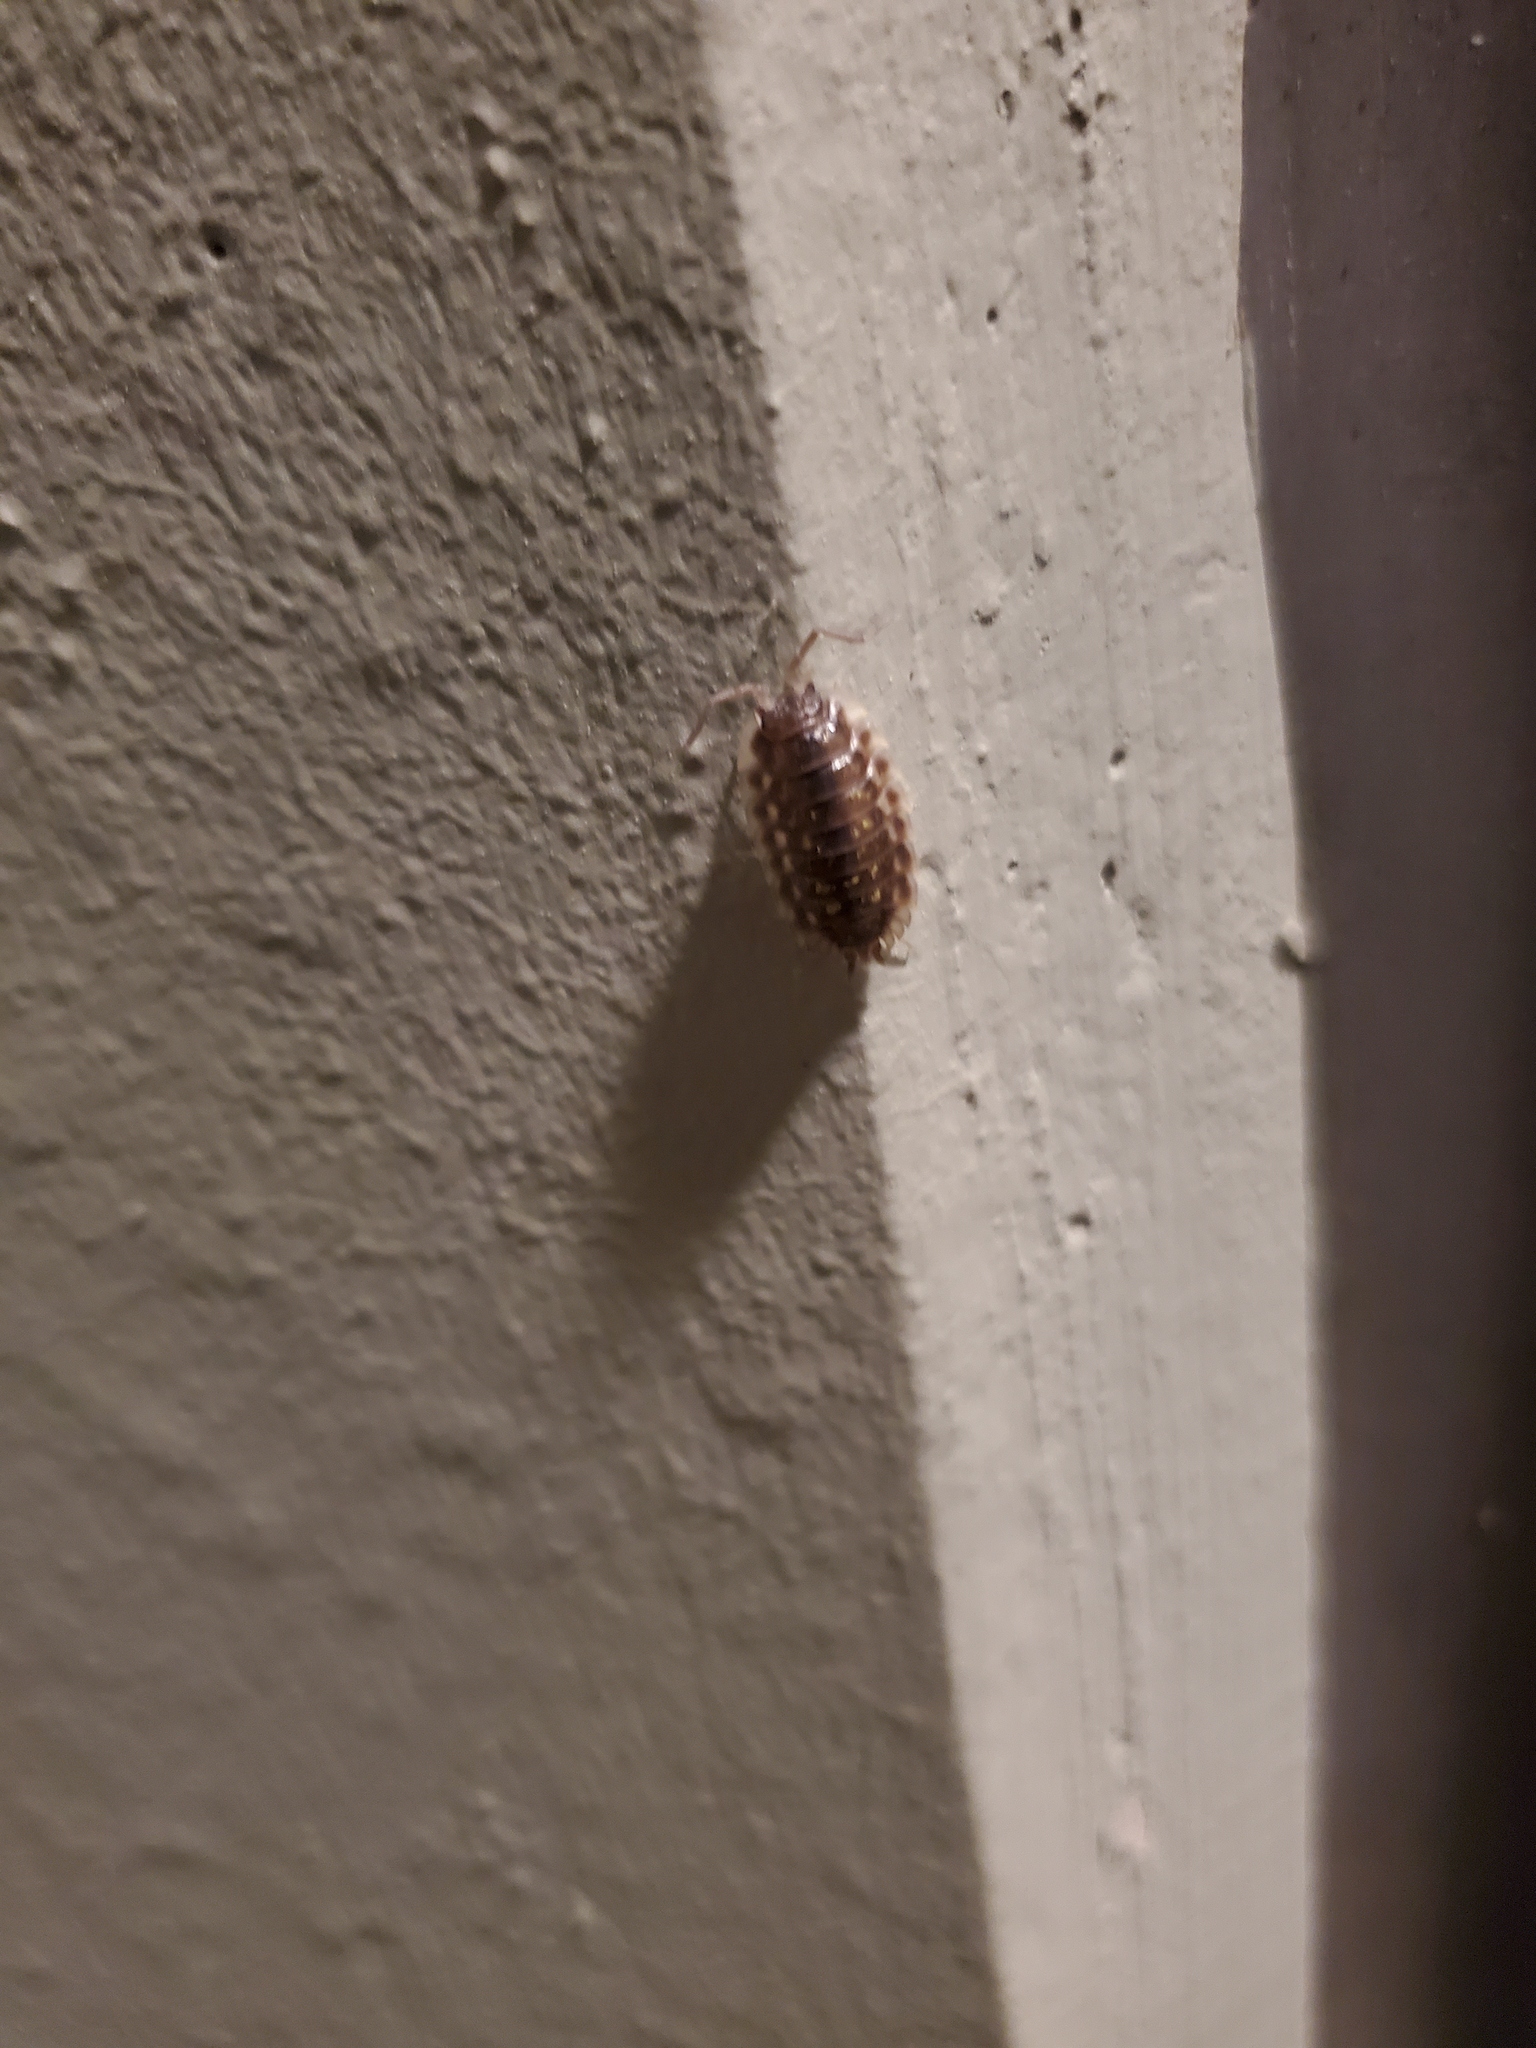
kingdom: Animalia
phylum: Arthropoda
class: Malacostraca
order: Isopoda
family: Oniscidae
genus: Oniscus
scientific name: Oniscus asellus
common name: Common shiny woodlouse
